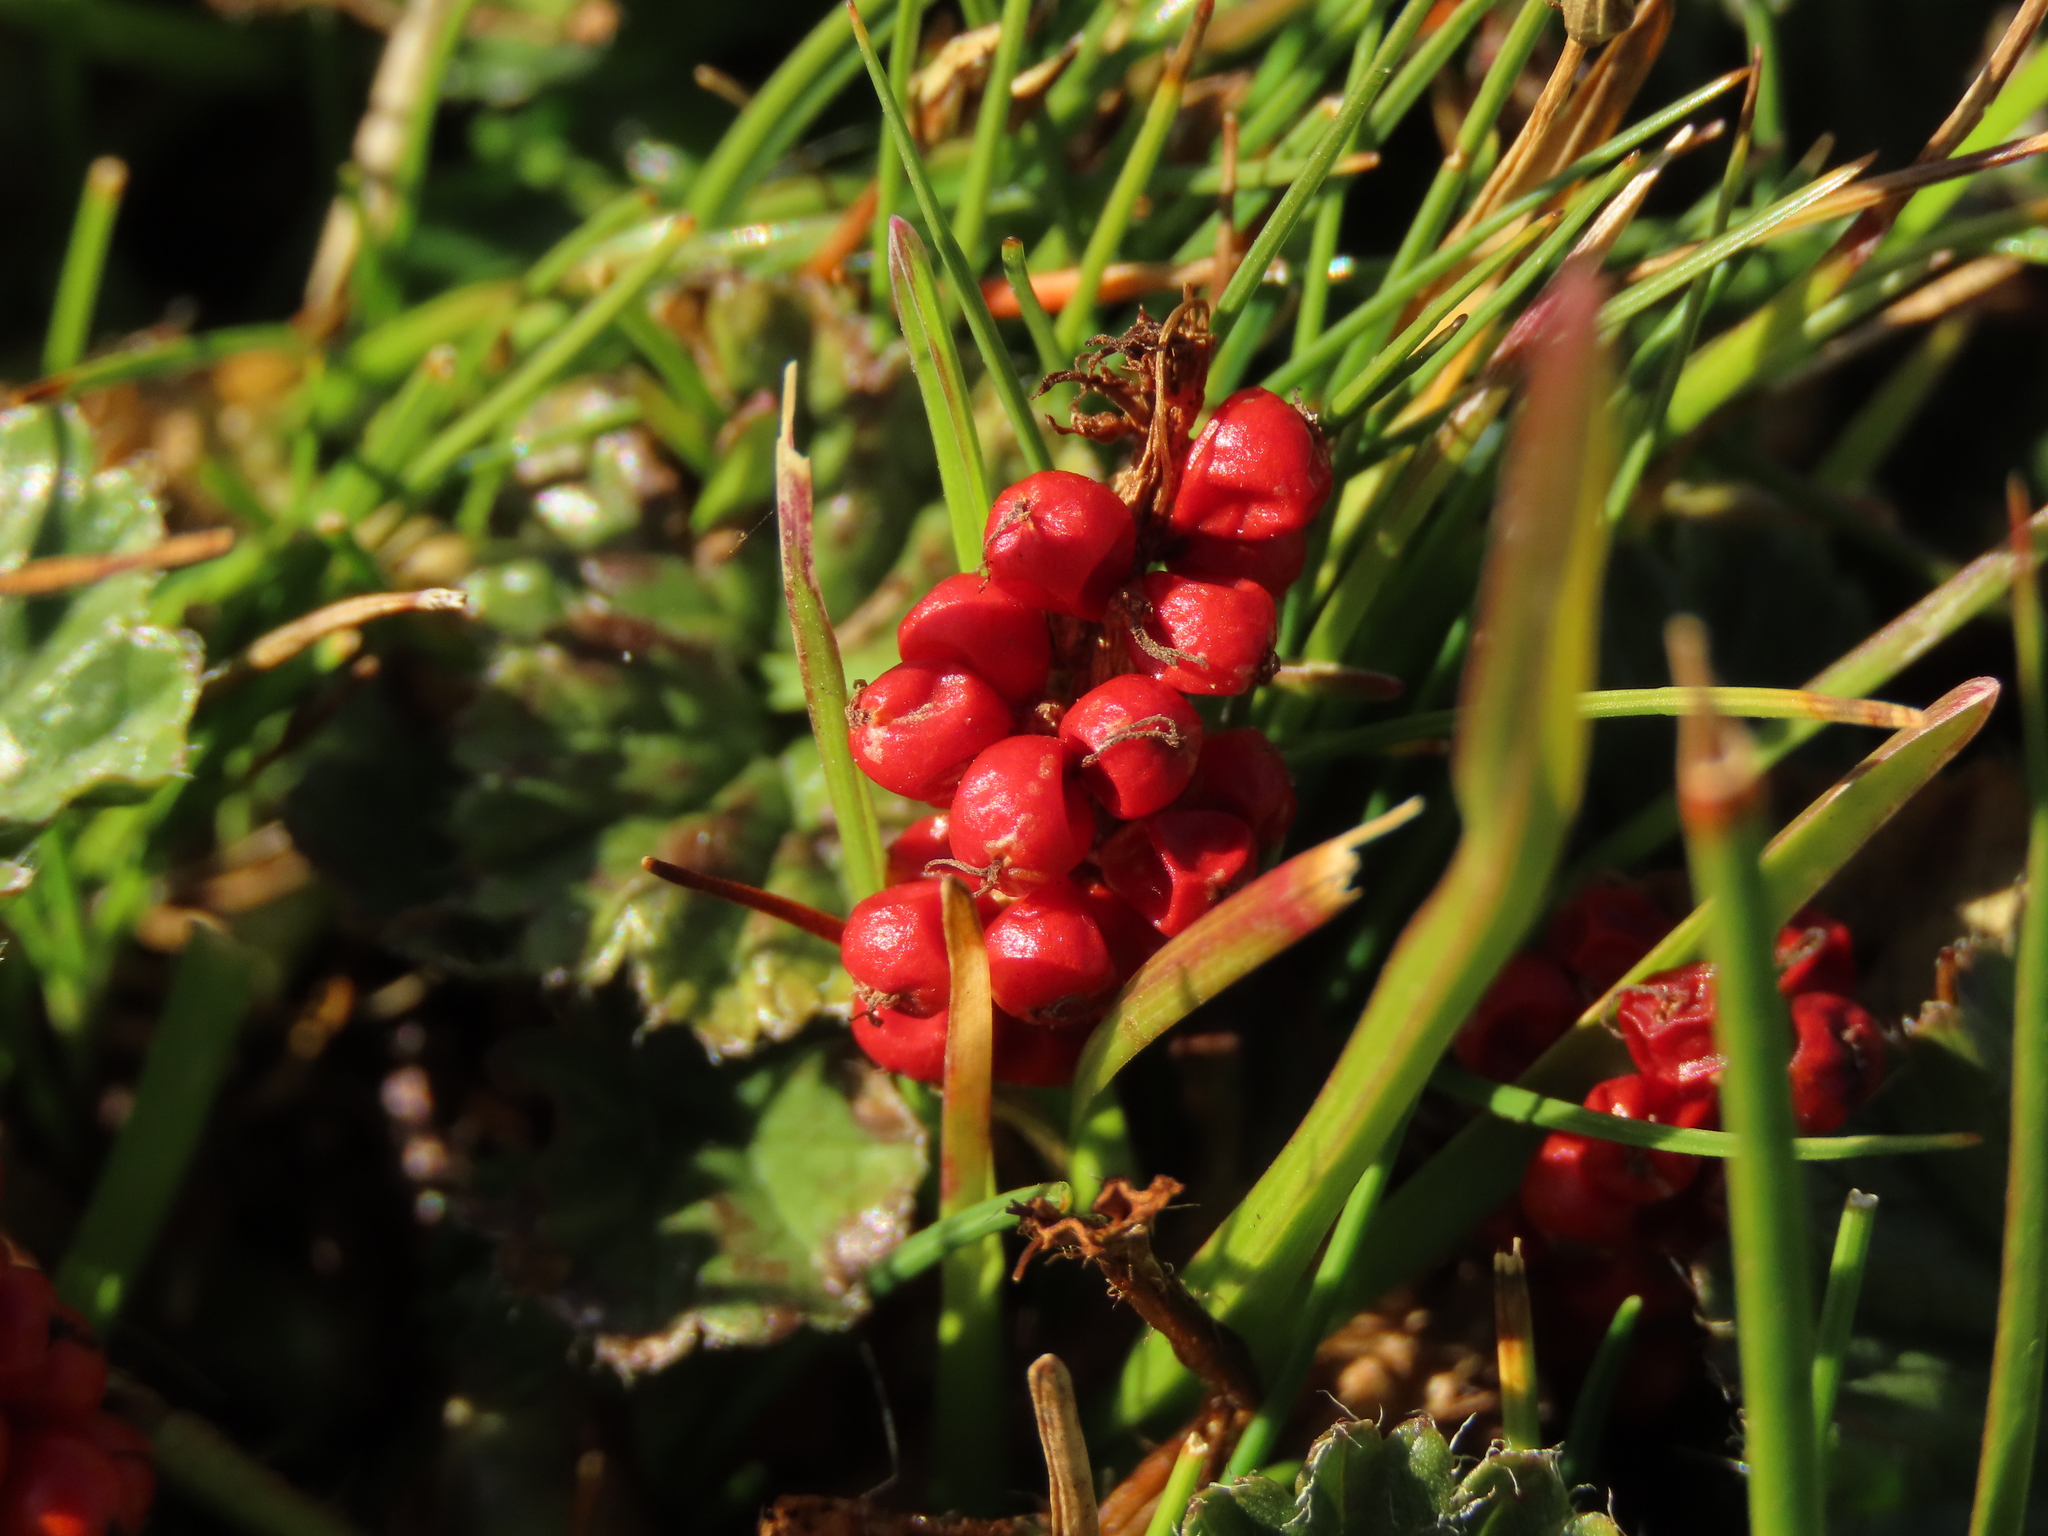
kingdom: Plantae
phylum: Tracheophyta
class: Magnoliopsida
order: Gunnerales
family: Gunneraceae
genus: Gunnera
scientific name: Gunnera magellanica
